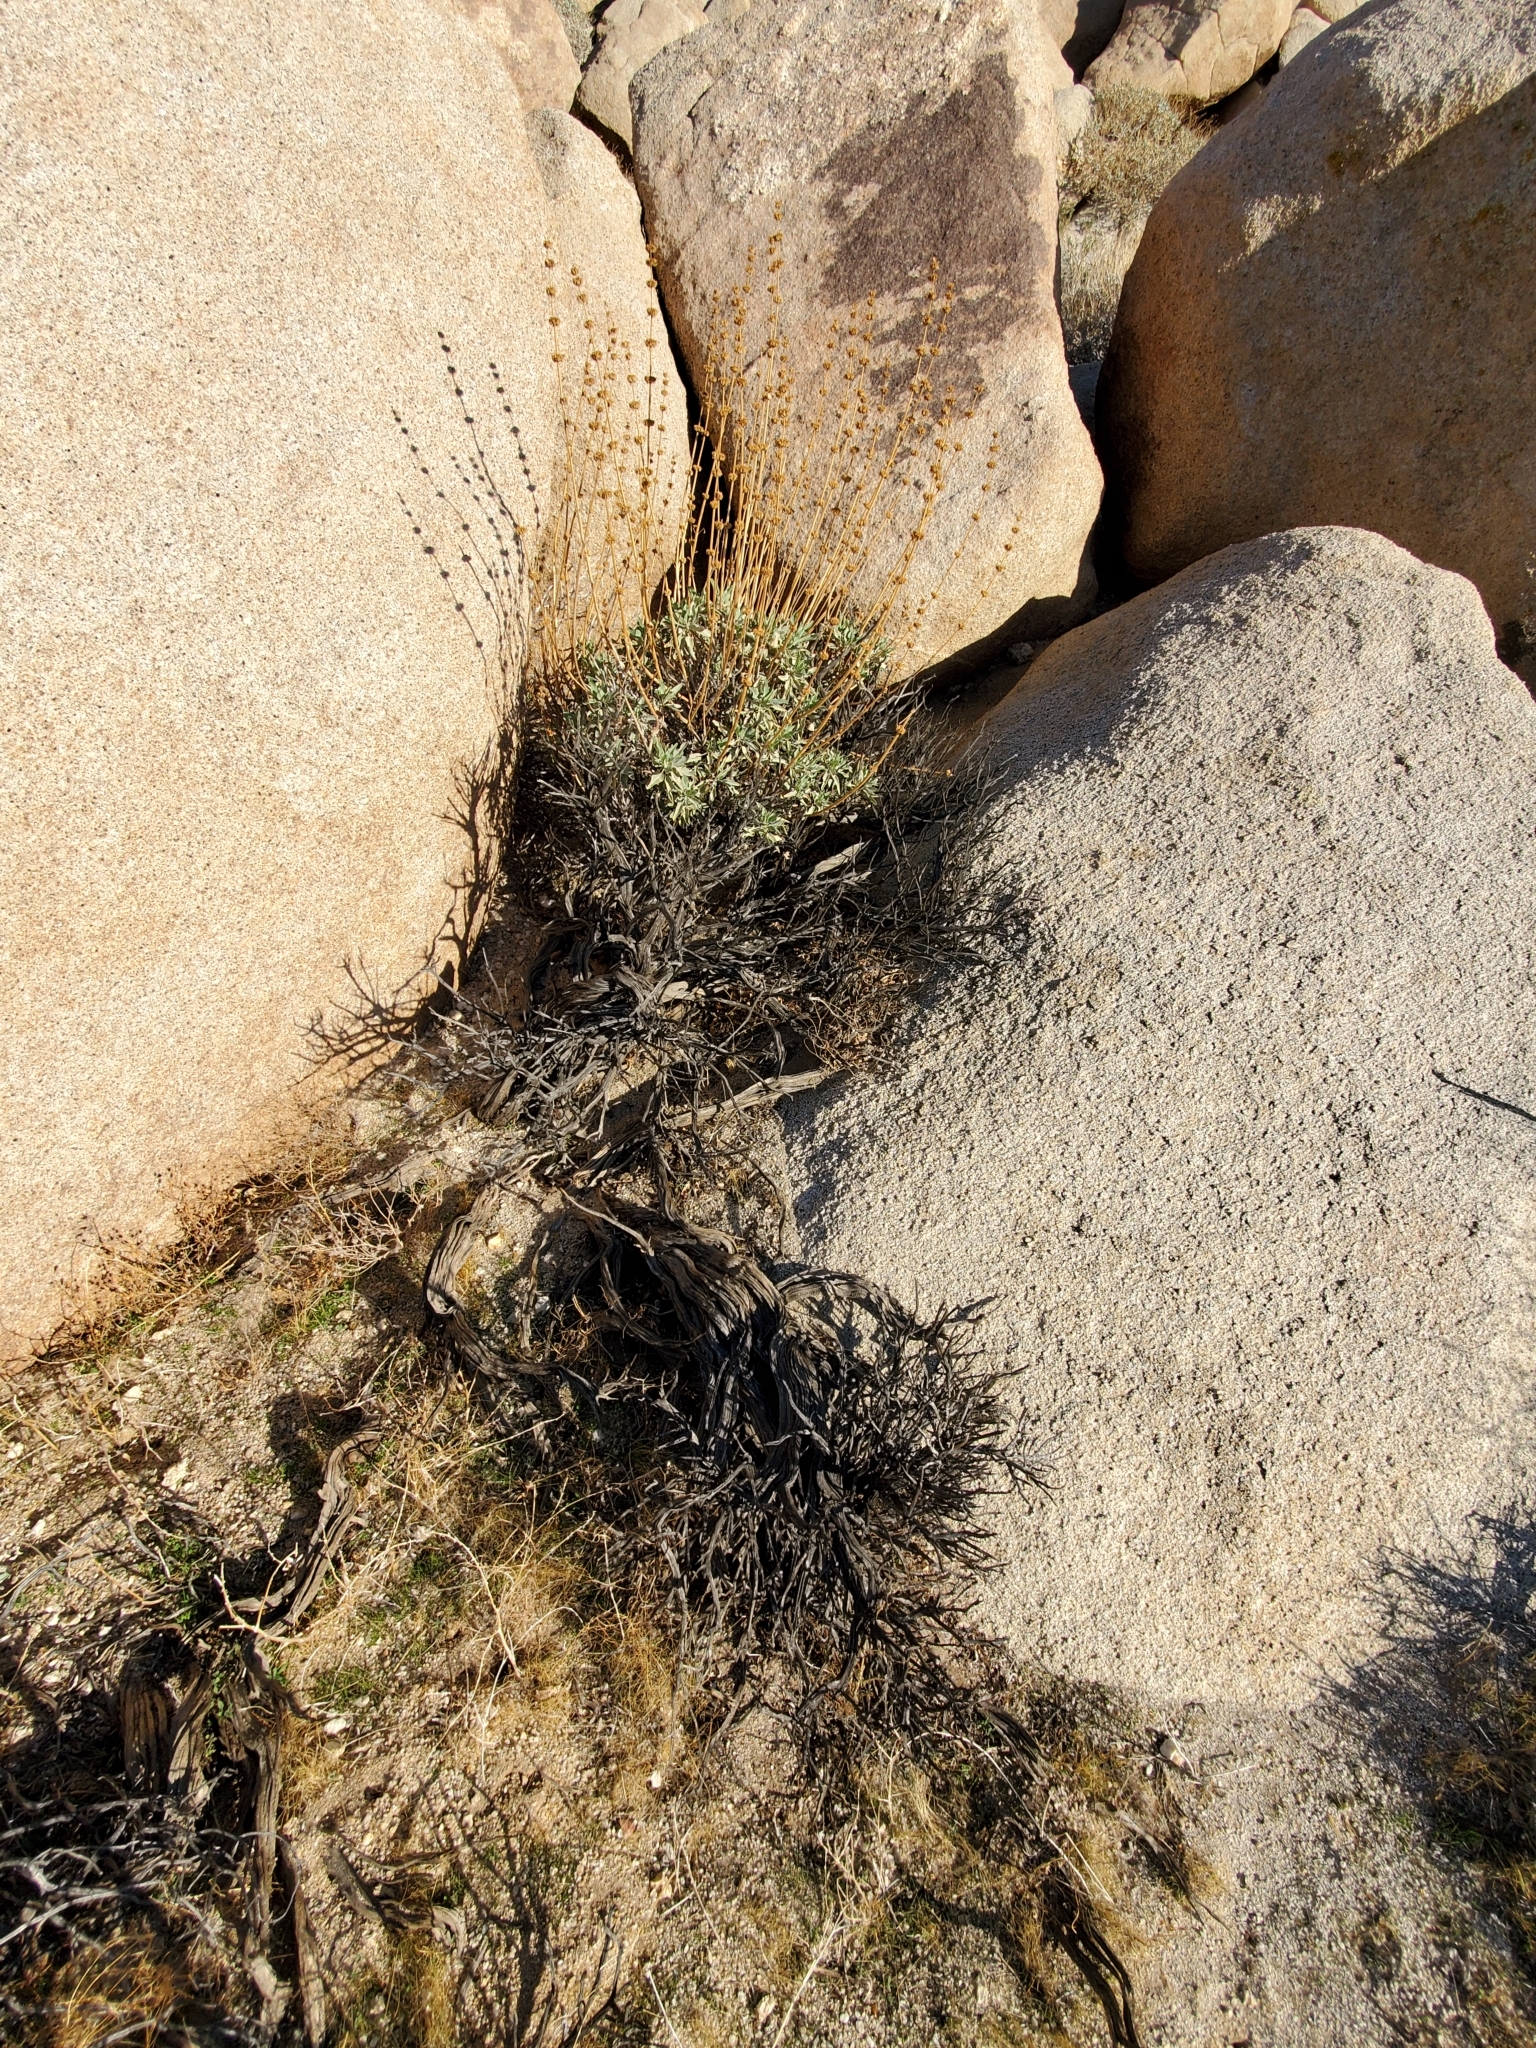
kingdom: Plantae
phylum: Tracheophyta
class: Magnoliopsida
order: Lamiales
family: Lamiaceae
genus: Salvia
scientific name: Salvia vaseyi
